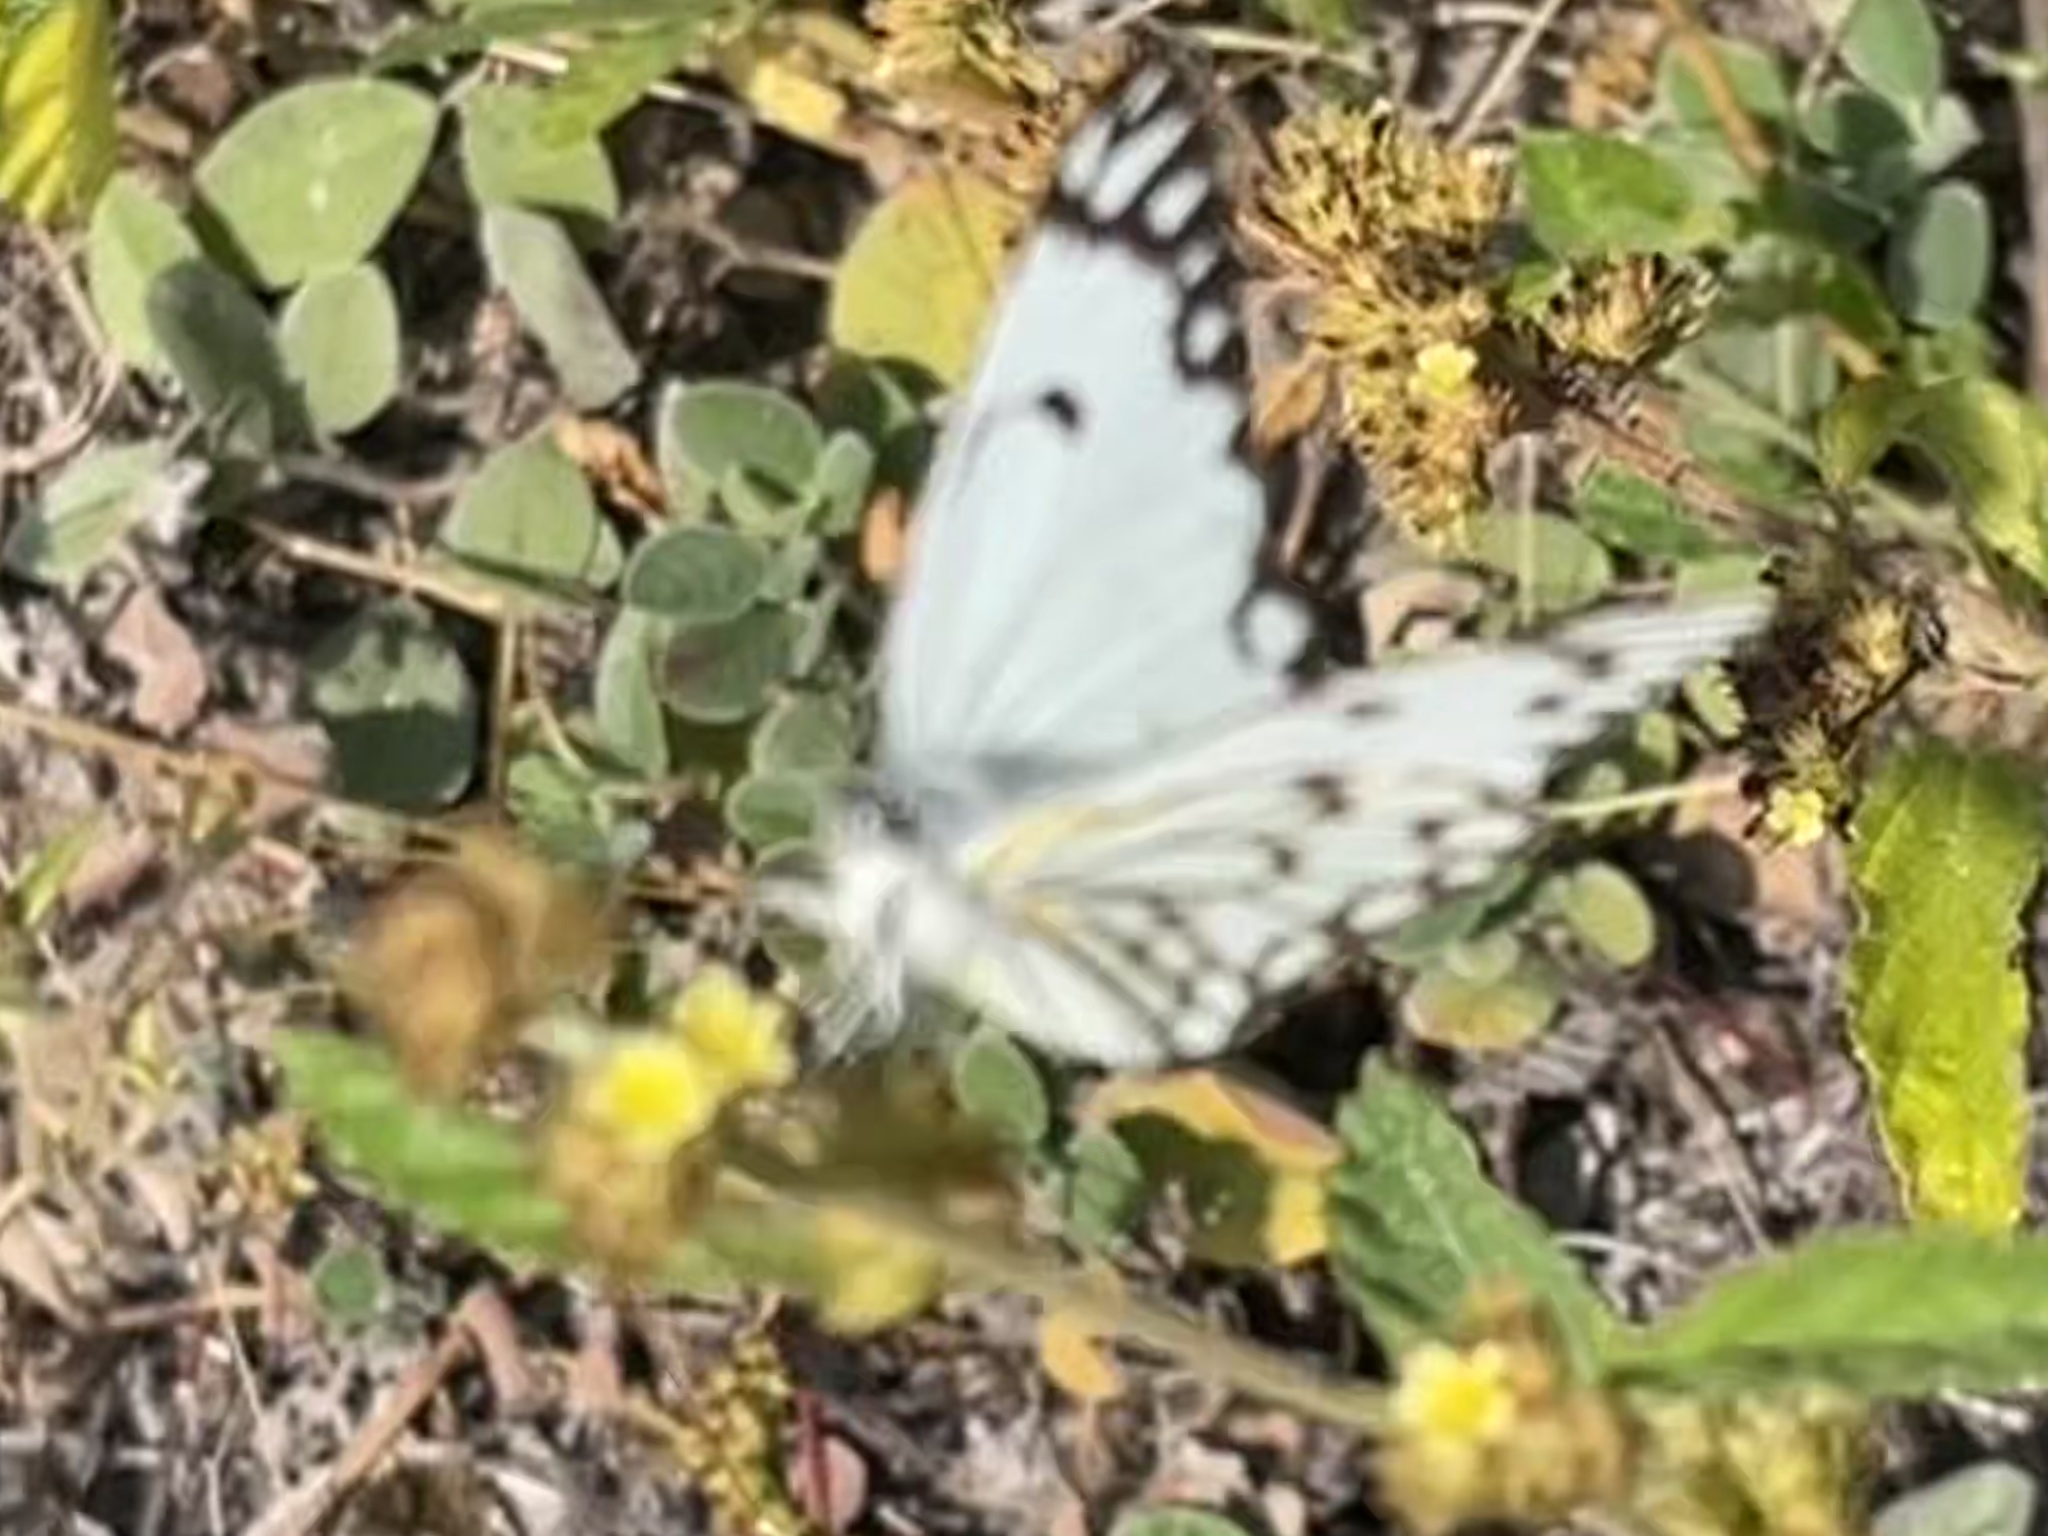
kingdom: Animalia
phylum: Arthropoda
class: Insecta
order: Lepidoptera
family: Pieridae
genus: Belenois
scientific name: Belenois aurota
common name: Brown-veined white
